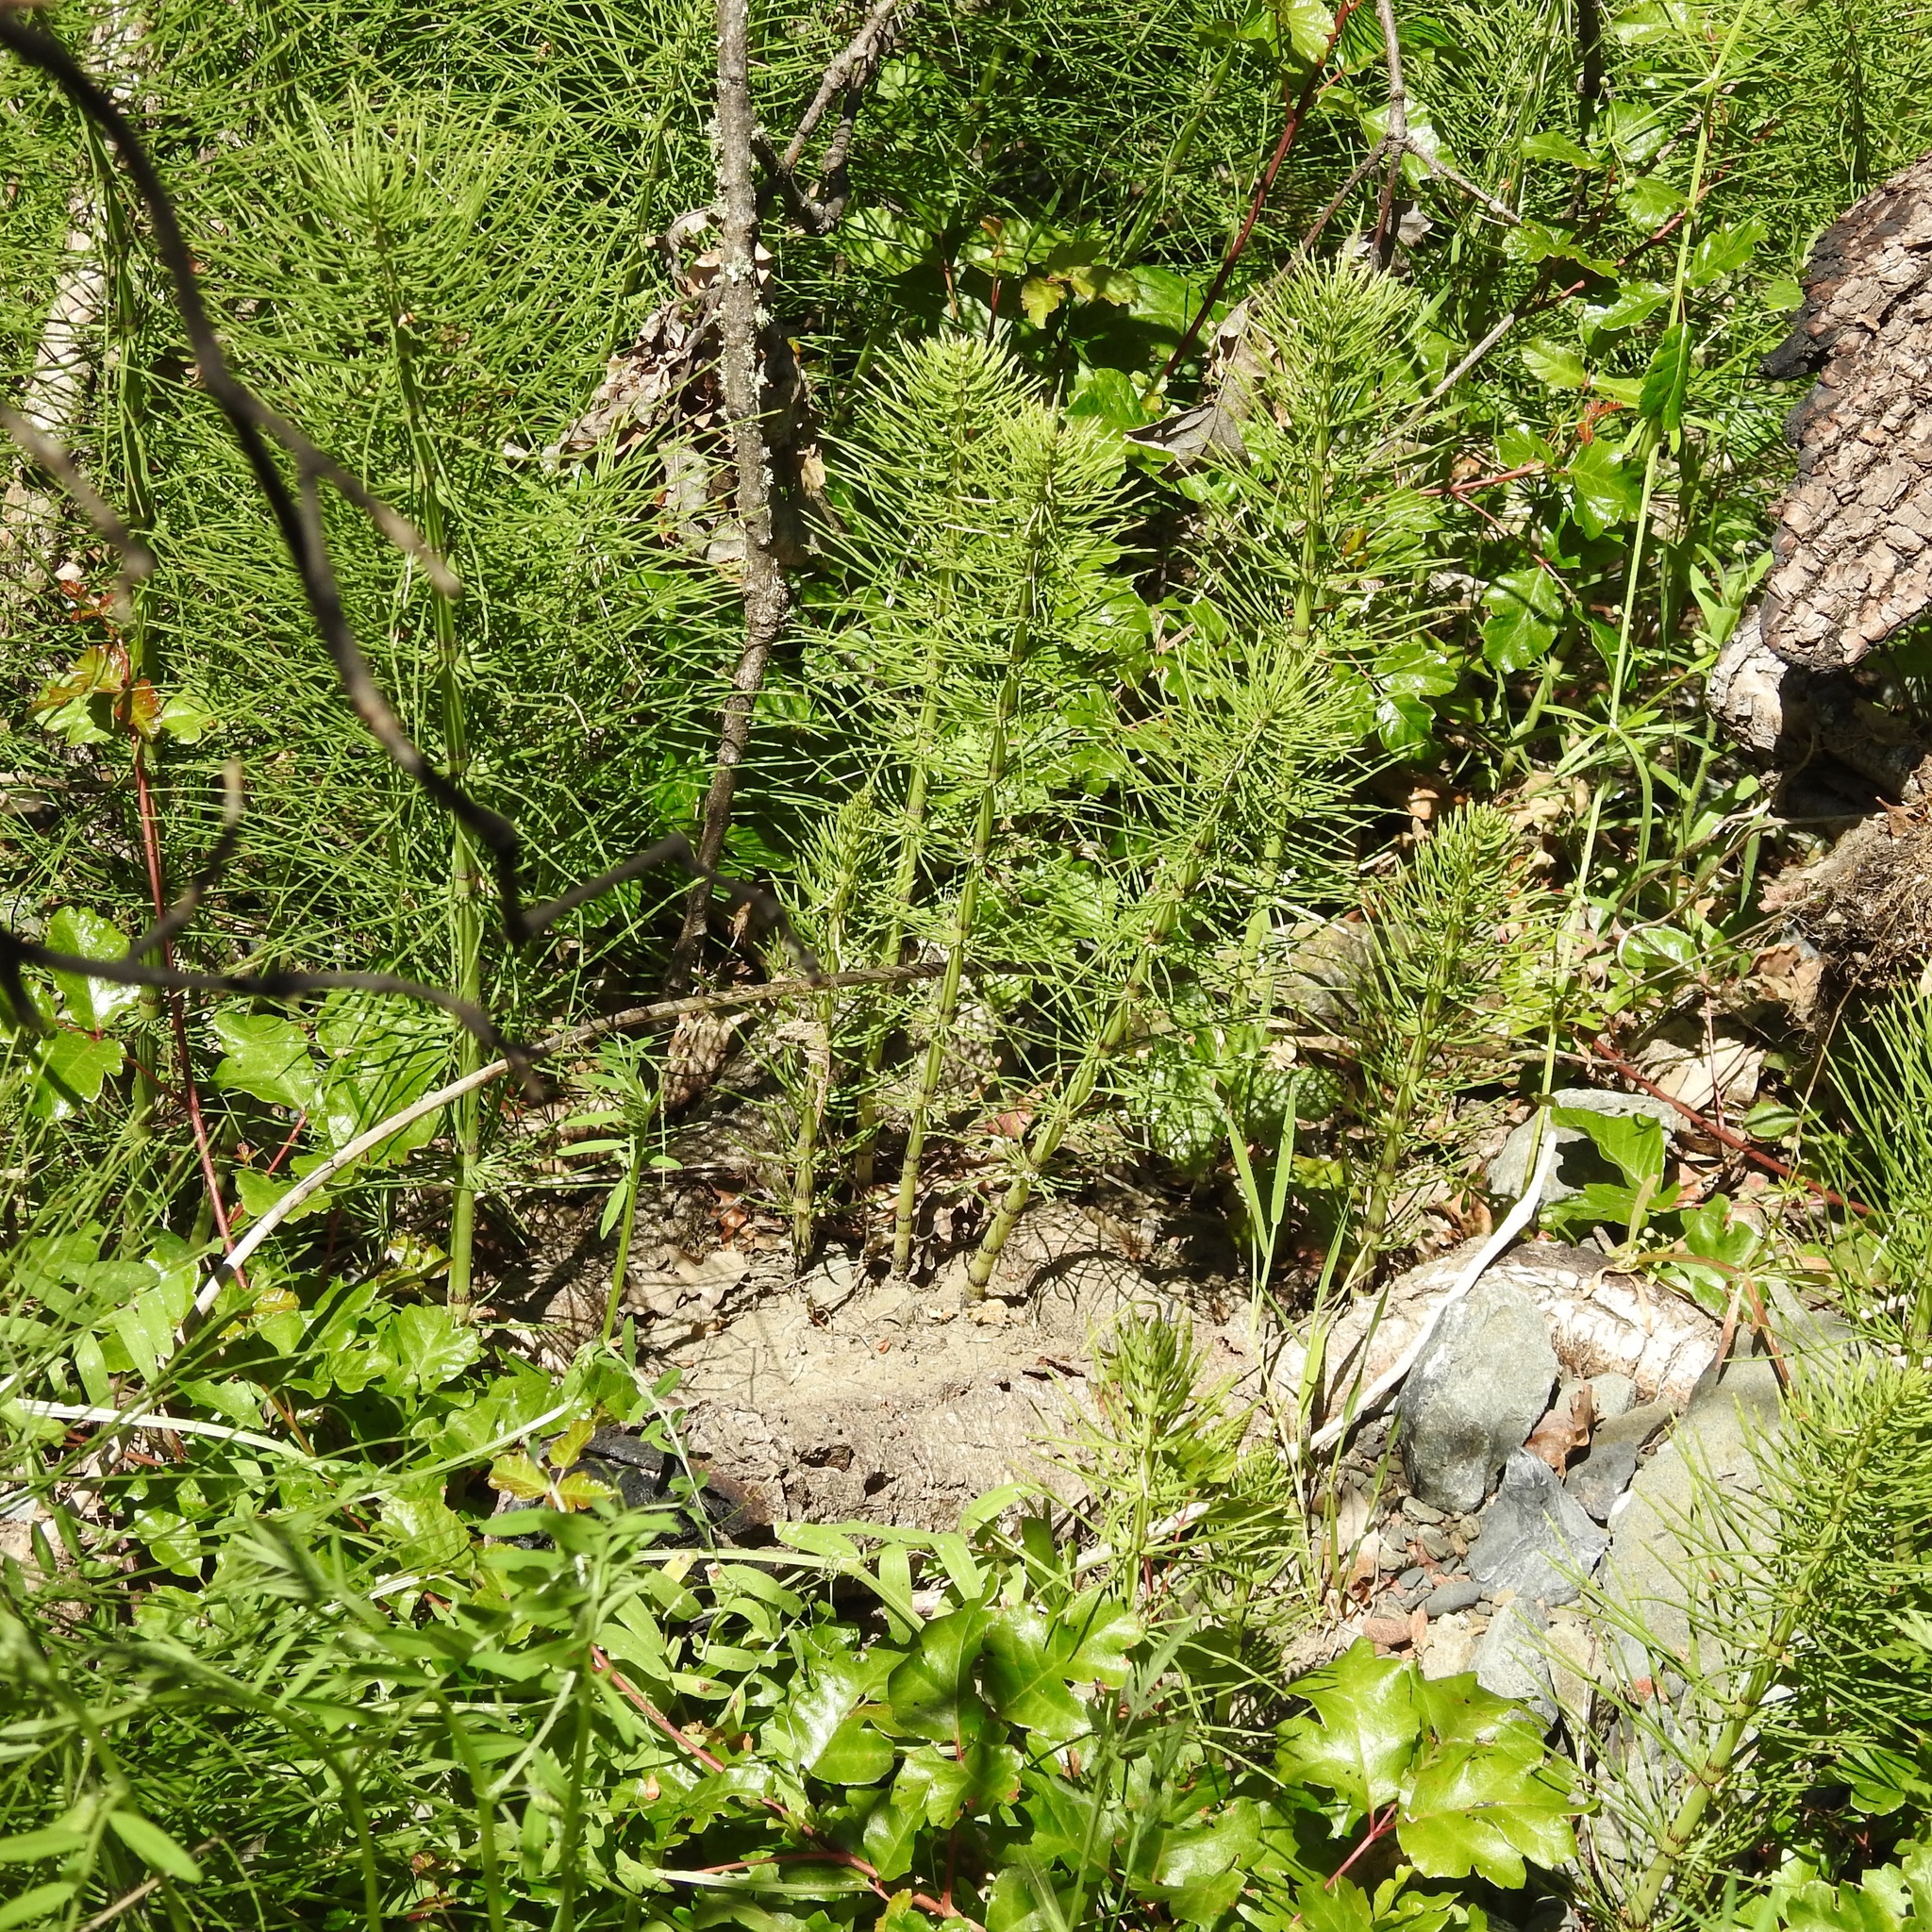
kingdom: Plantae
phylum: Tracheophyta
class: Magnoliopsida
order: Sapindales
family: Anacardiaceae
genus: Toxicodendron
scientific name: Toxicodendron diversilobum
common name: Pacific poison-oak
